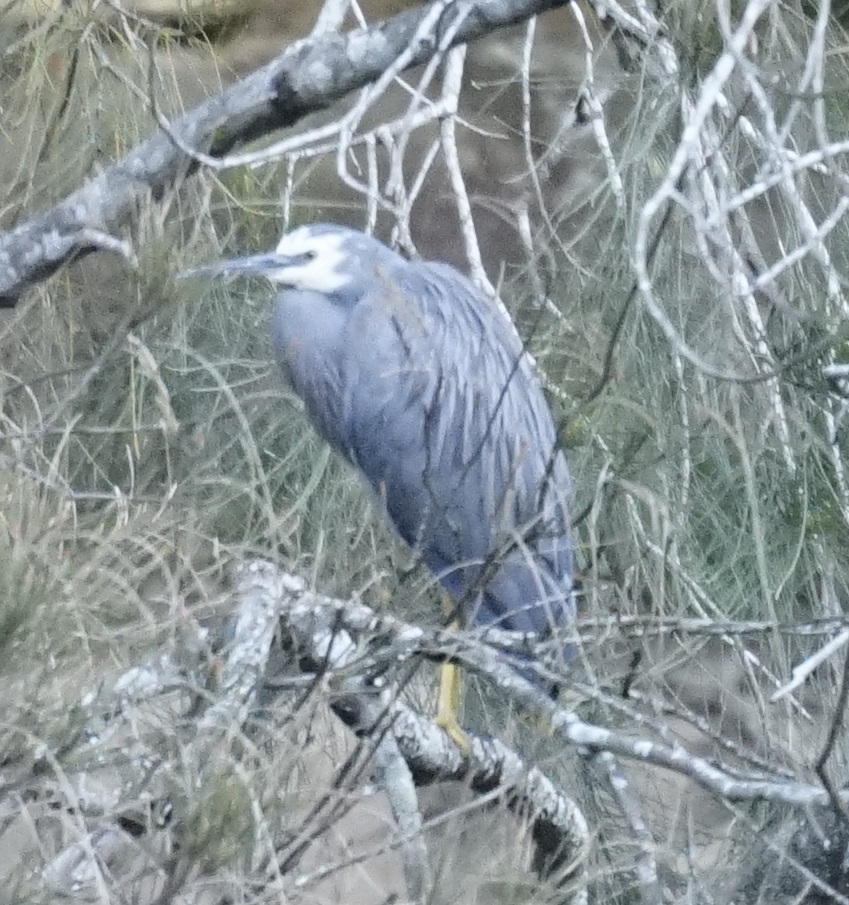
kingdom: Animalia
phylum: Chordata
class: Aves
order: Pelecaniformes
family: Ardeidae
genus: Egretta
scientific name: Egretta novaehollandiae
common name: White-faced heron
